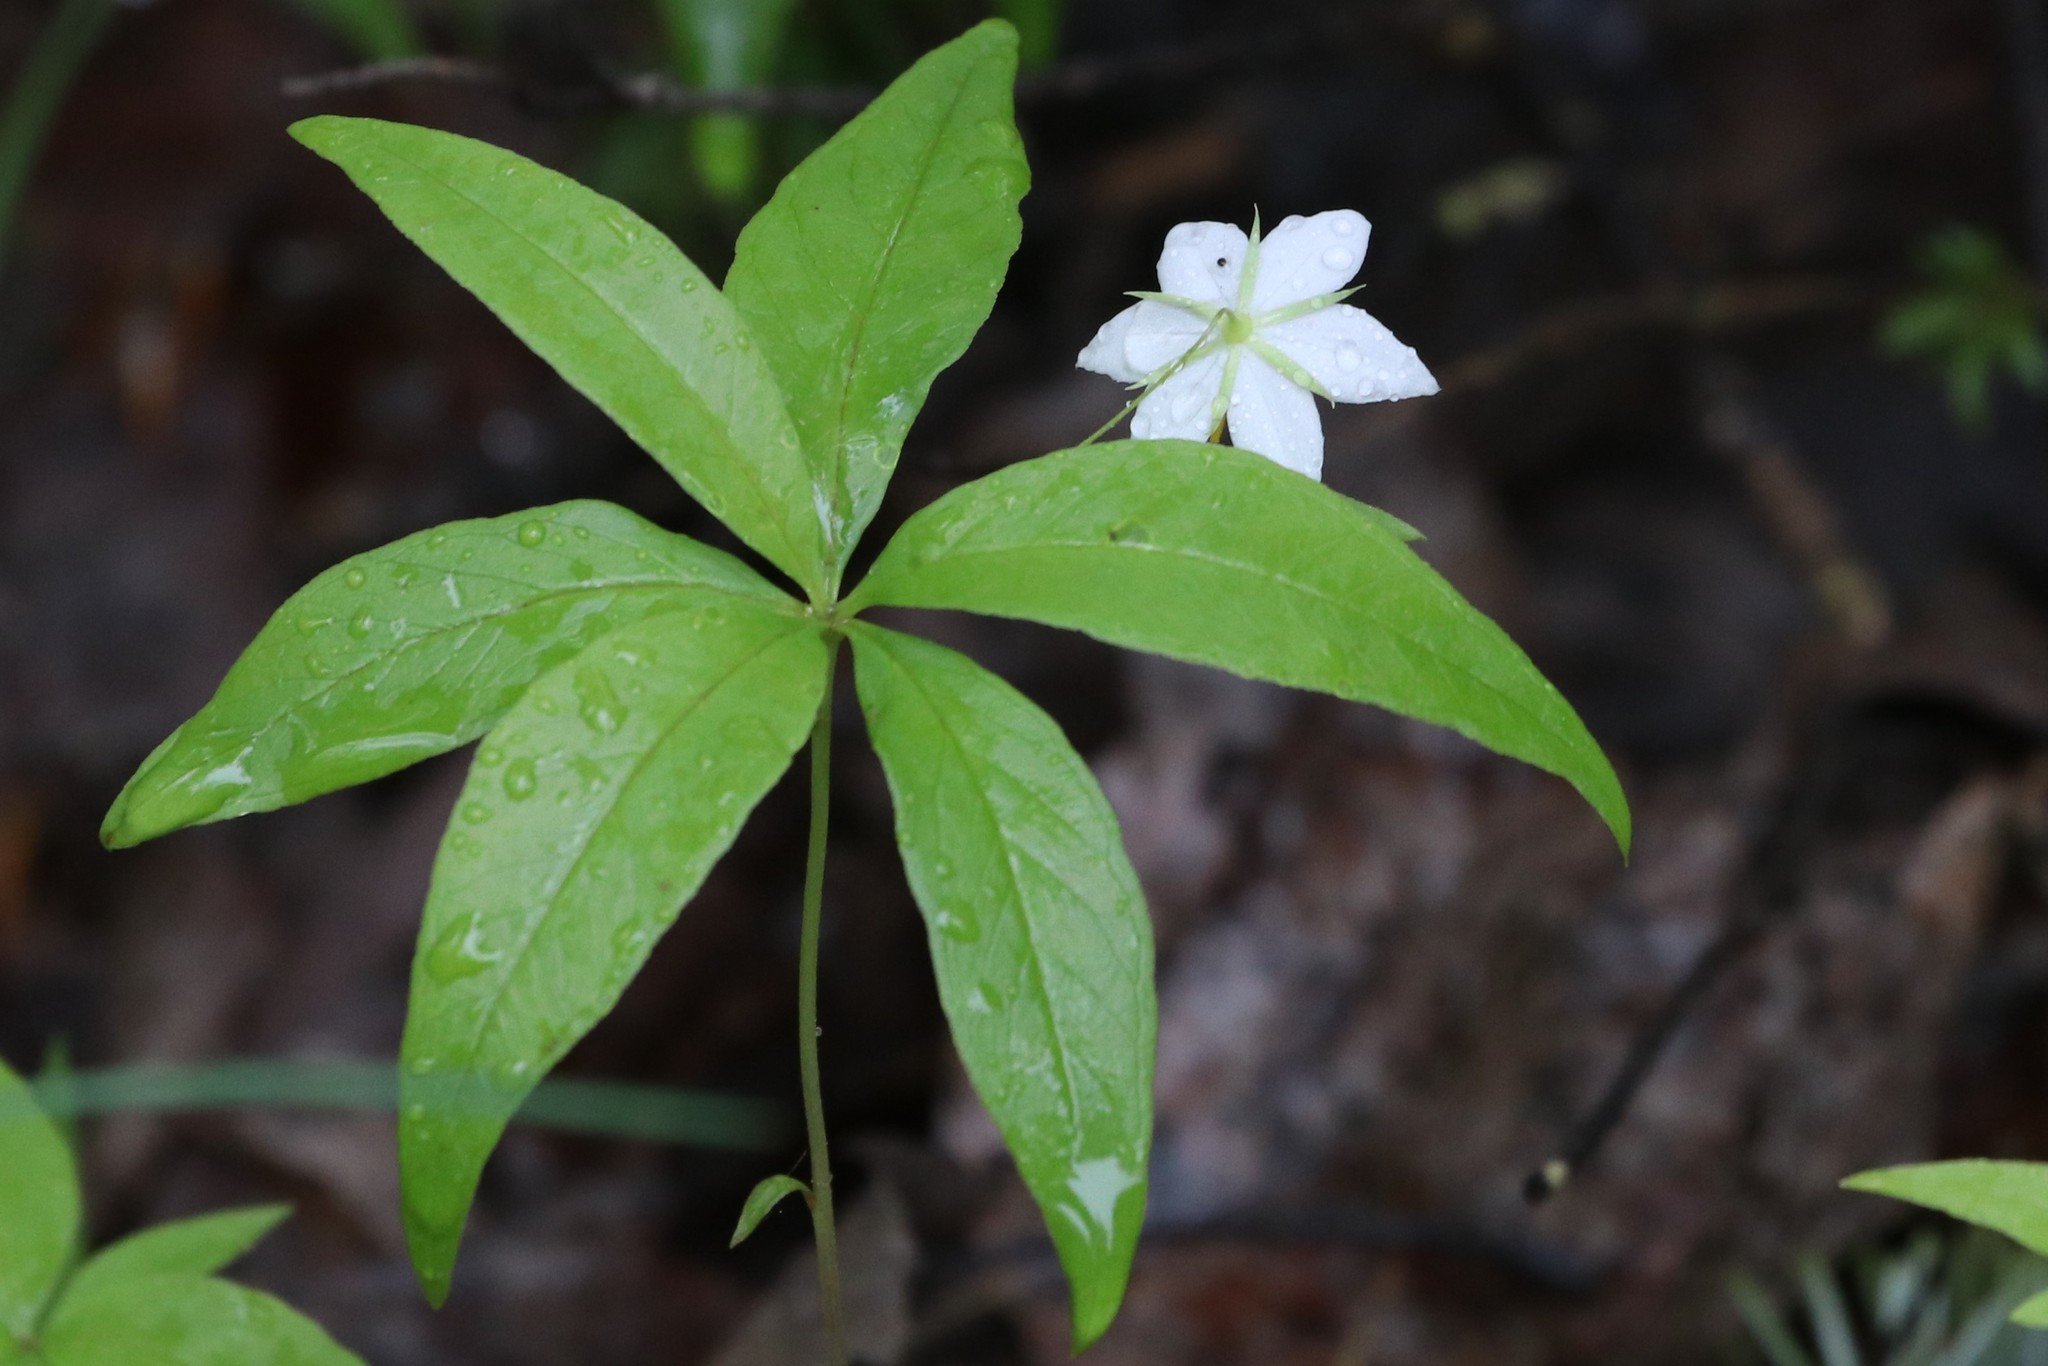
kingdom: Plantae
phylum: Tracheophyta
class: Magnoliopsida
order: Ericales
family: Primulaceae
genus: Lysimachia
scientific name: Lysimachia borealis
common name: American starflower
